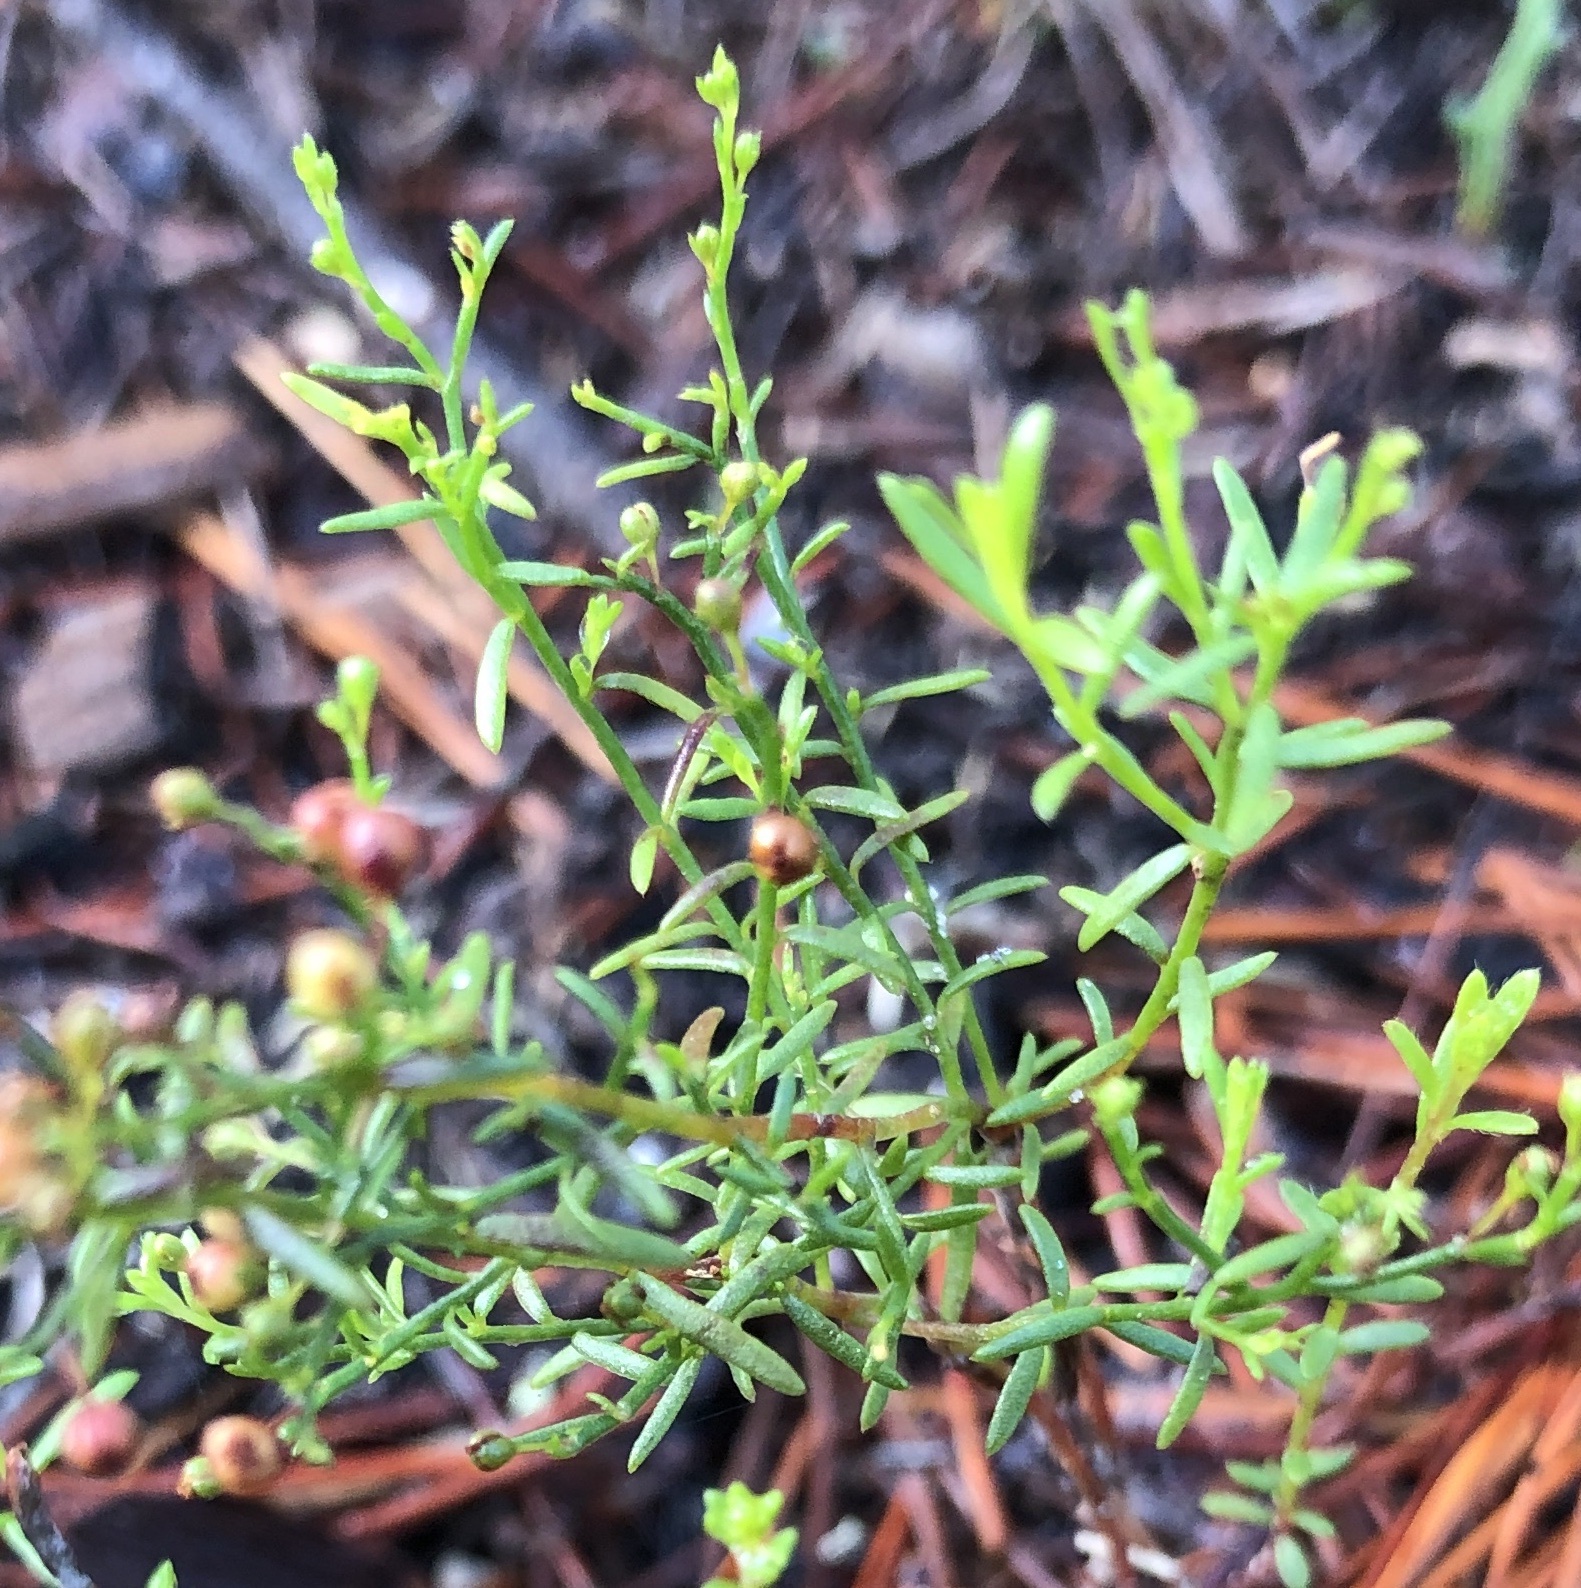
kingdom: Plantae
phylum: Tracheophyta
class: Magnoliopsida
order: Malvales
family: Cistaceae
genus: Lechea
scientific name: Lechea deckertii
